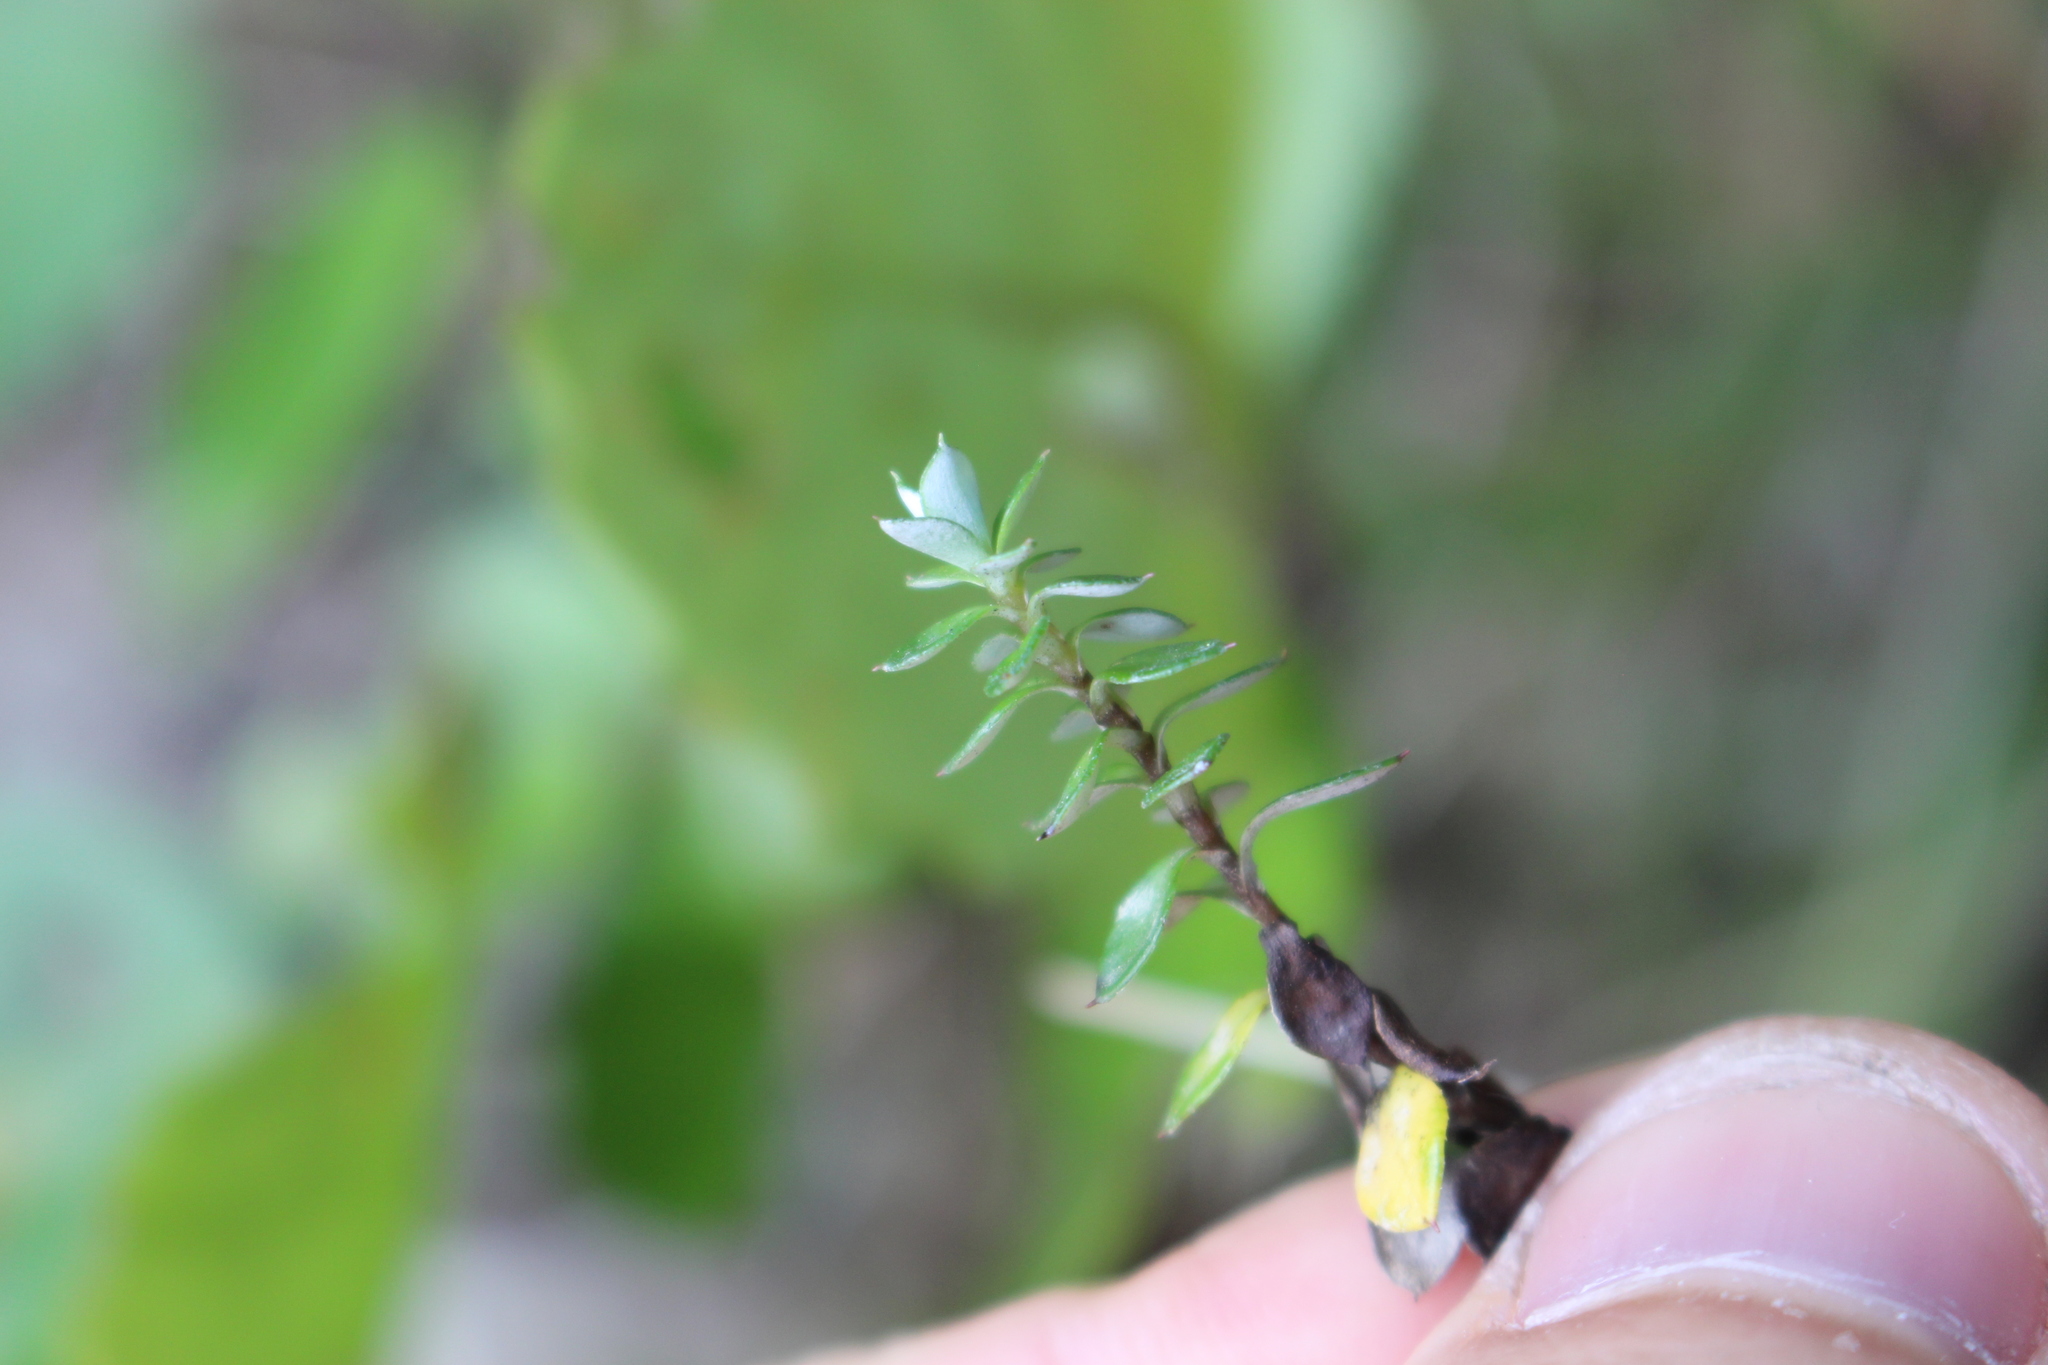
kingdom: Plantae
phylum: Tracheophyta
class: Magnoliopsida
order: Asterales
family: Asteraceae
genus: Anaphalioides
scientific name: Anaphalioides bellidioides
